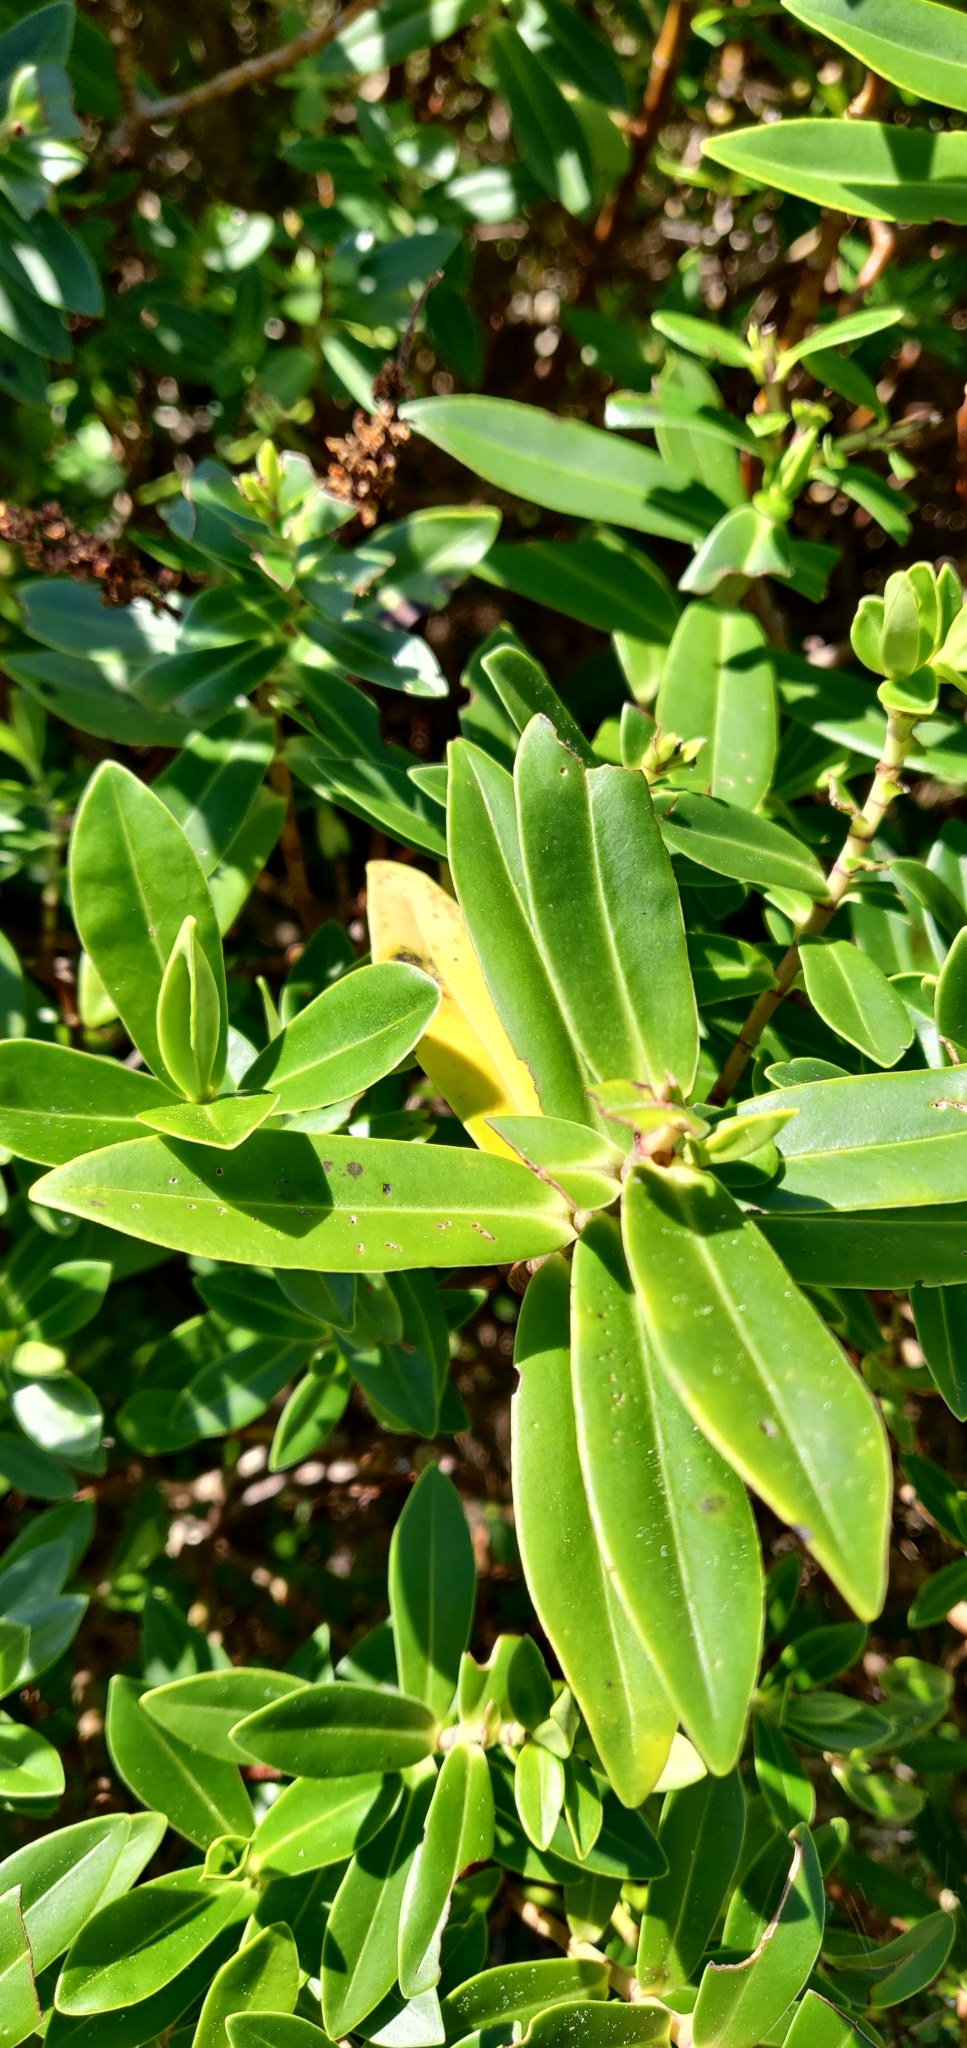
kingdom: Plantae
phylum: Tracheophyta
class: Magnoliopsida
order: Lamiales
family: Plantaginaceae
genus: Veronica
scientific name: Veronica stricta
